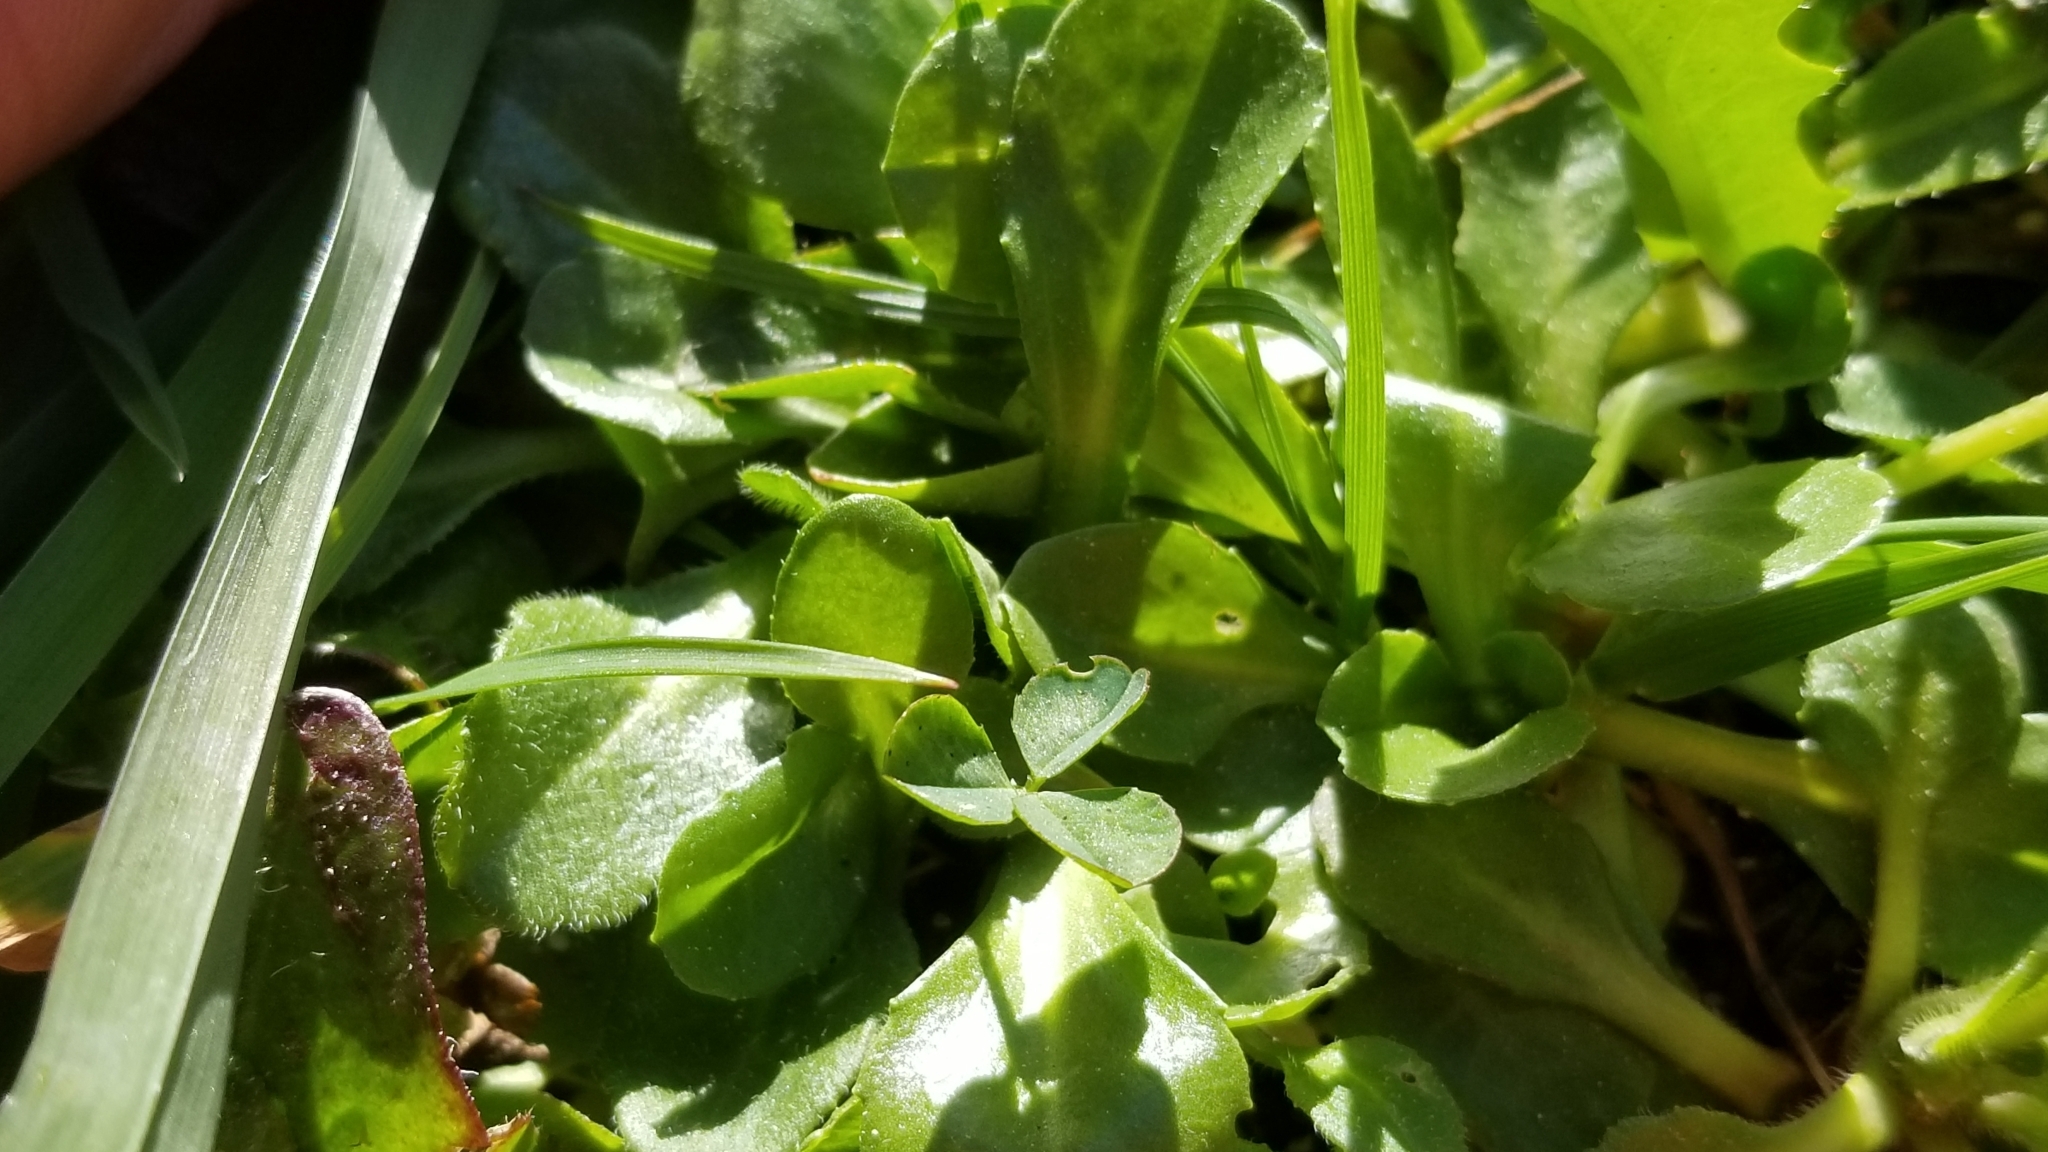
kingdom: Plantae
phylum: Tracheophyta
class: Magnoliopsida
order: Asterales
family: Asteraceae
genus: Bellis
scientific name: Bellis perennis
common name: Lawndaisy
